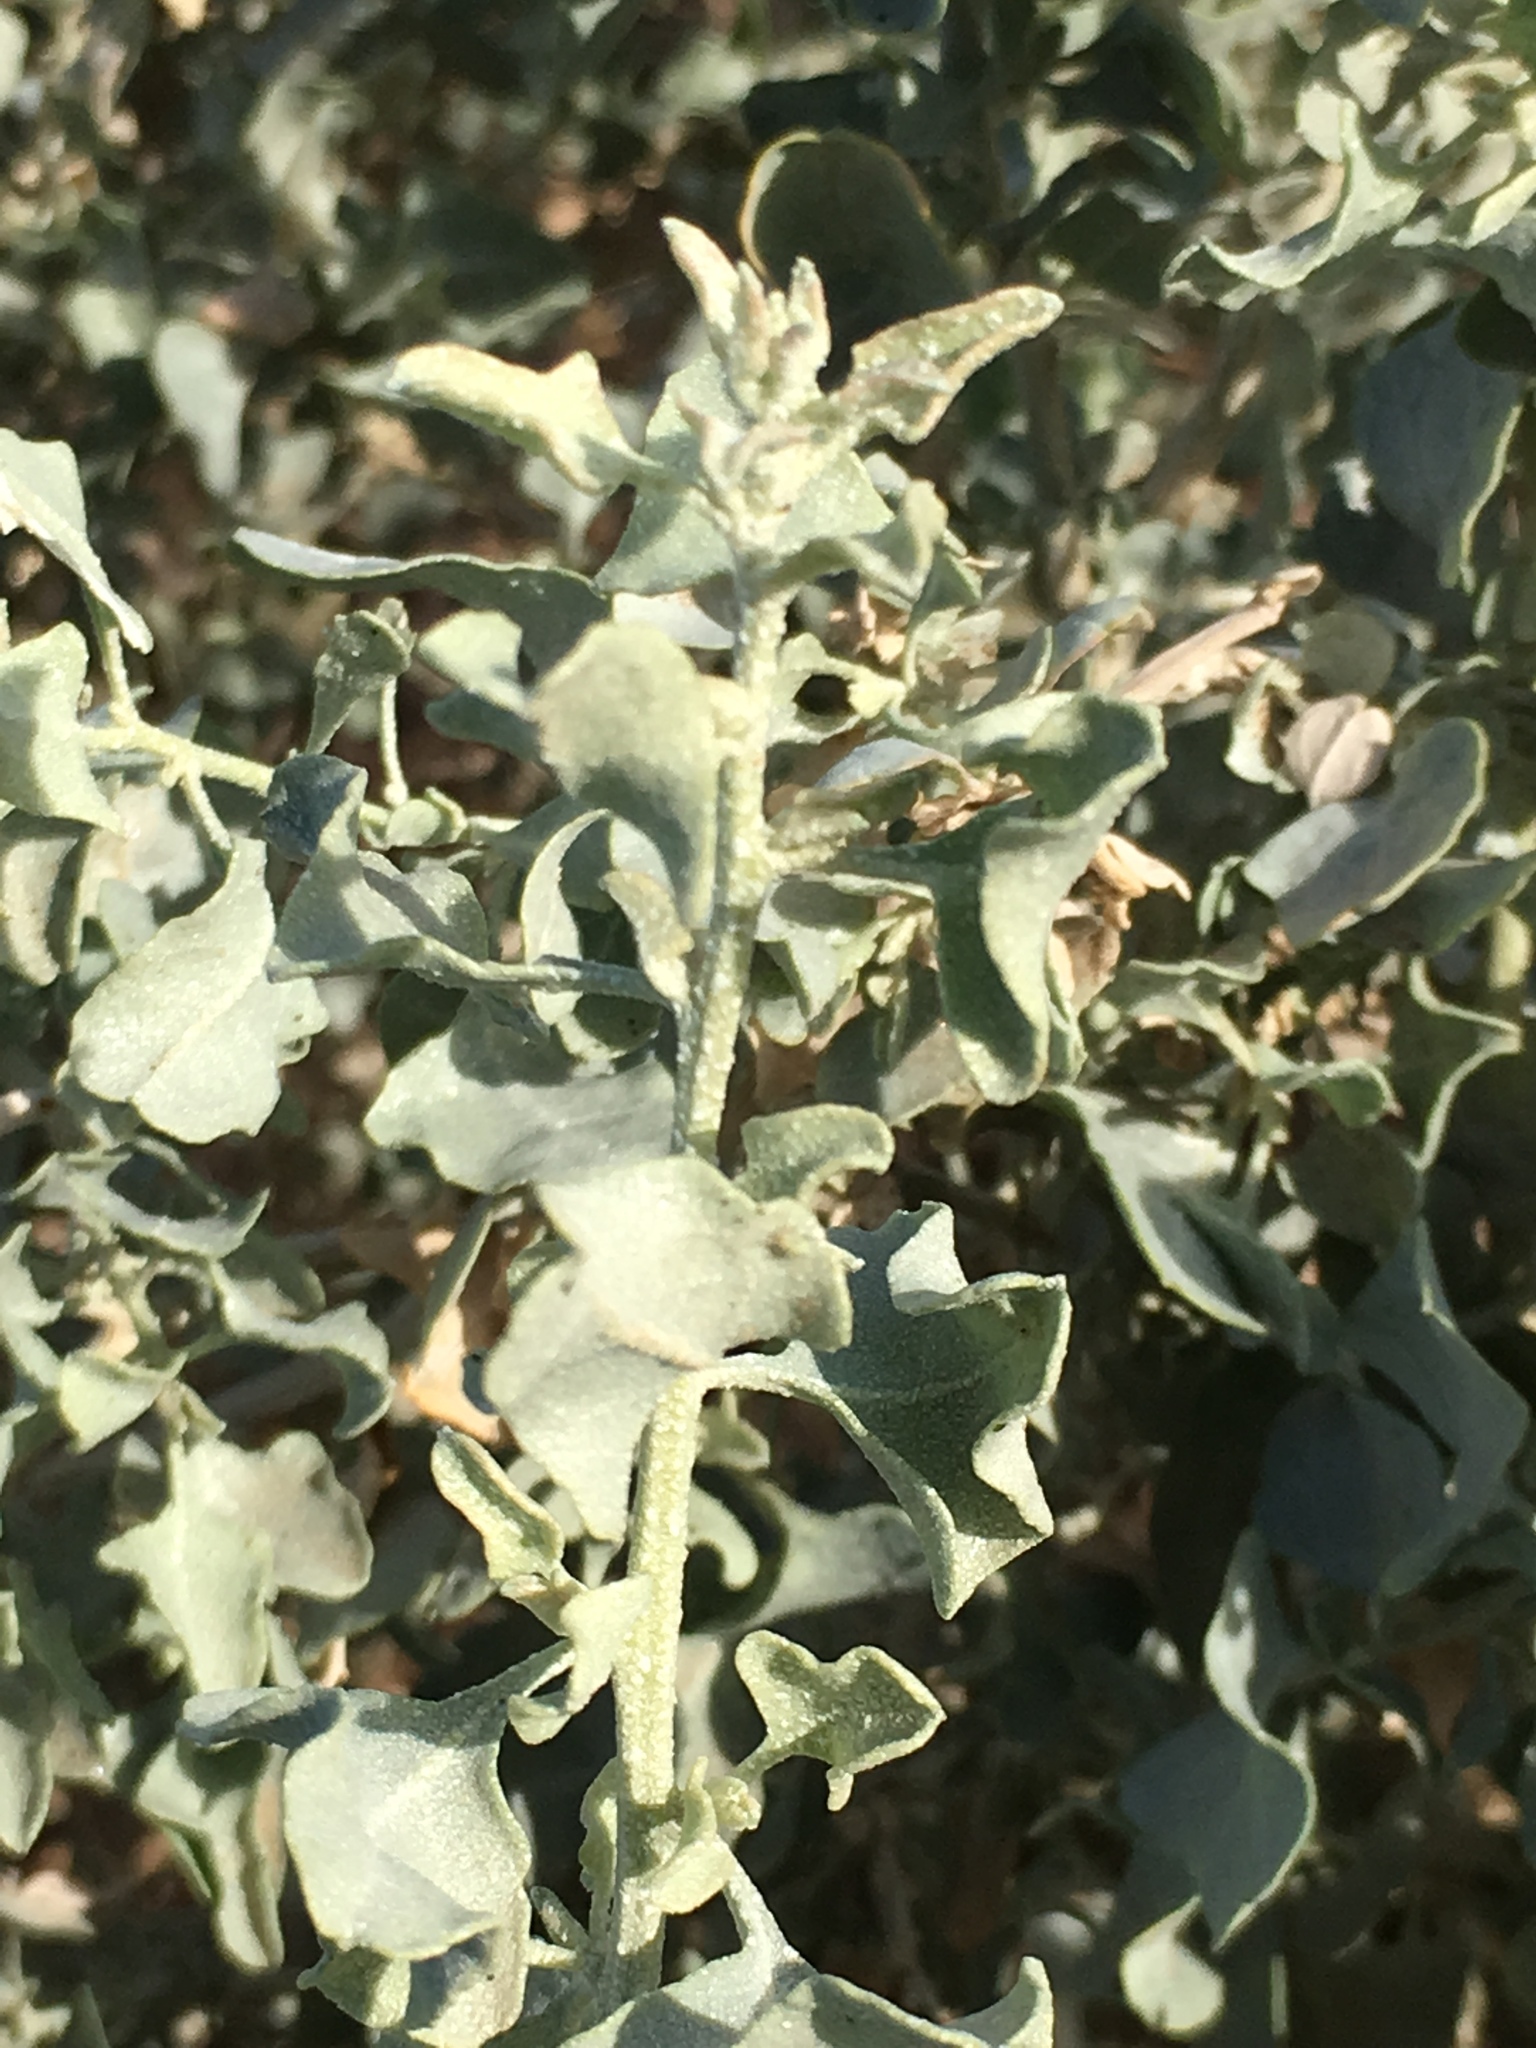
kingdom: Plantae
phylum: Tracheophyta
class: Magnoliopsida
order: Caryophyllales
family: Amaranthaceae
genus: Atriplex
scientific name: Atriplex lentiformis
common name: Big saltbush
